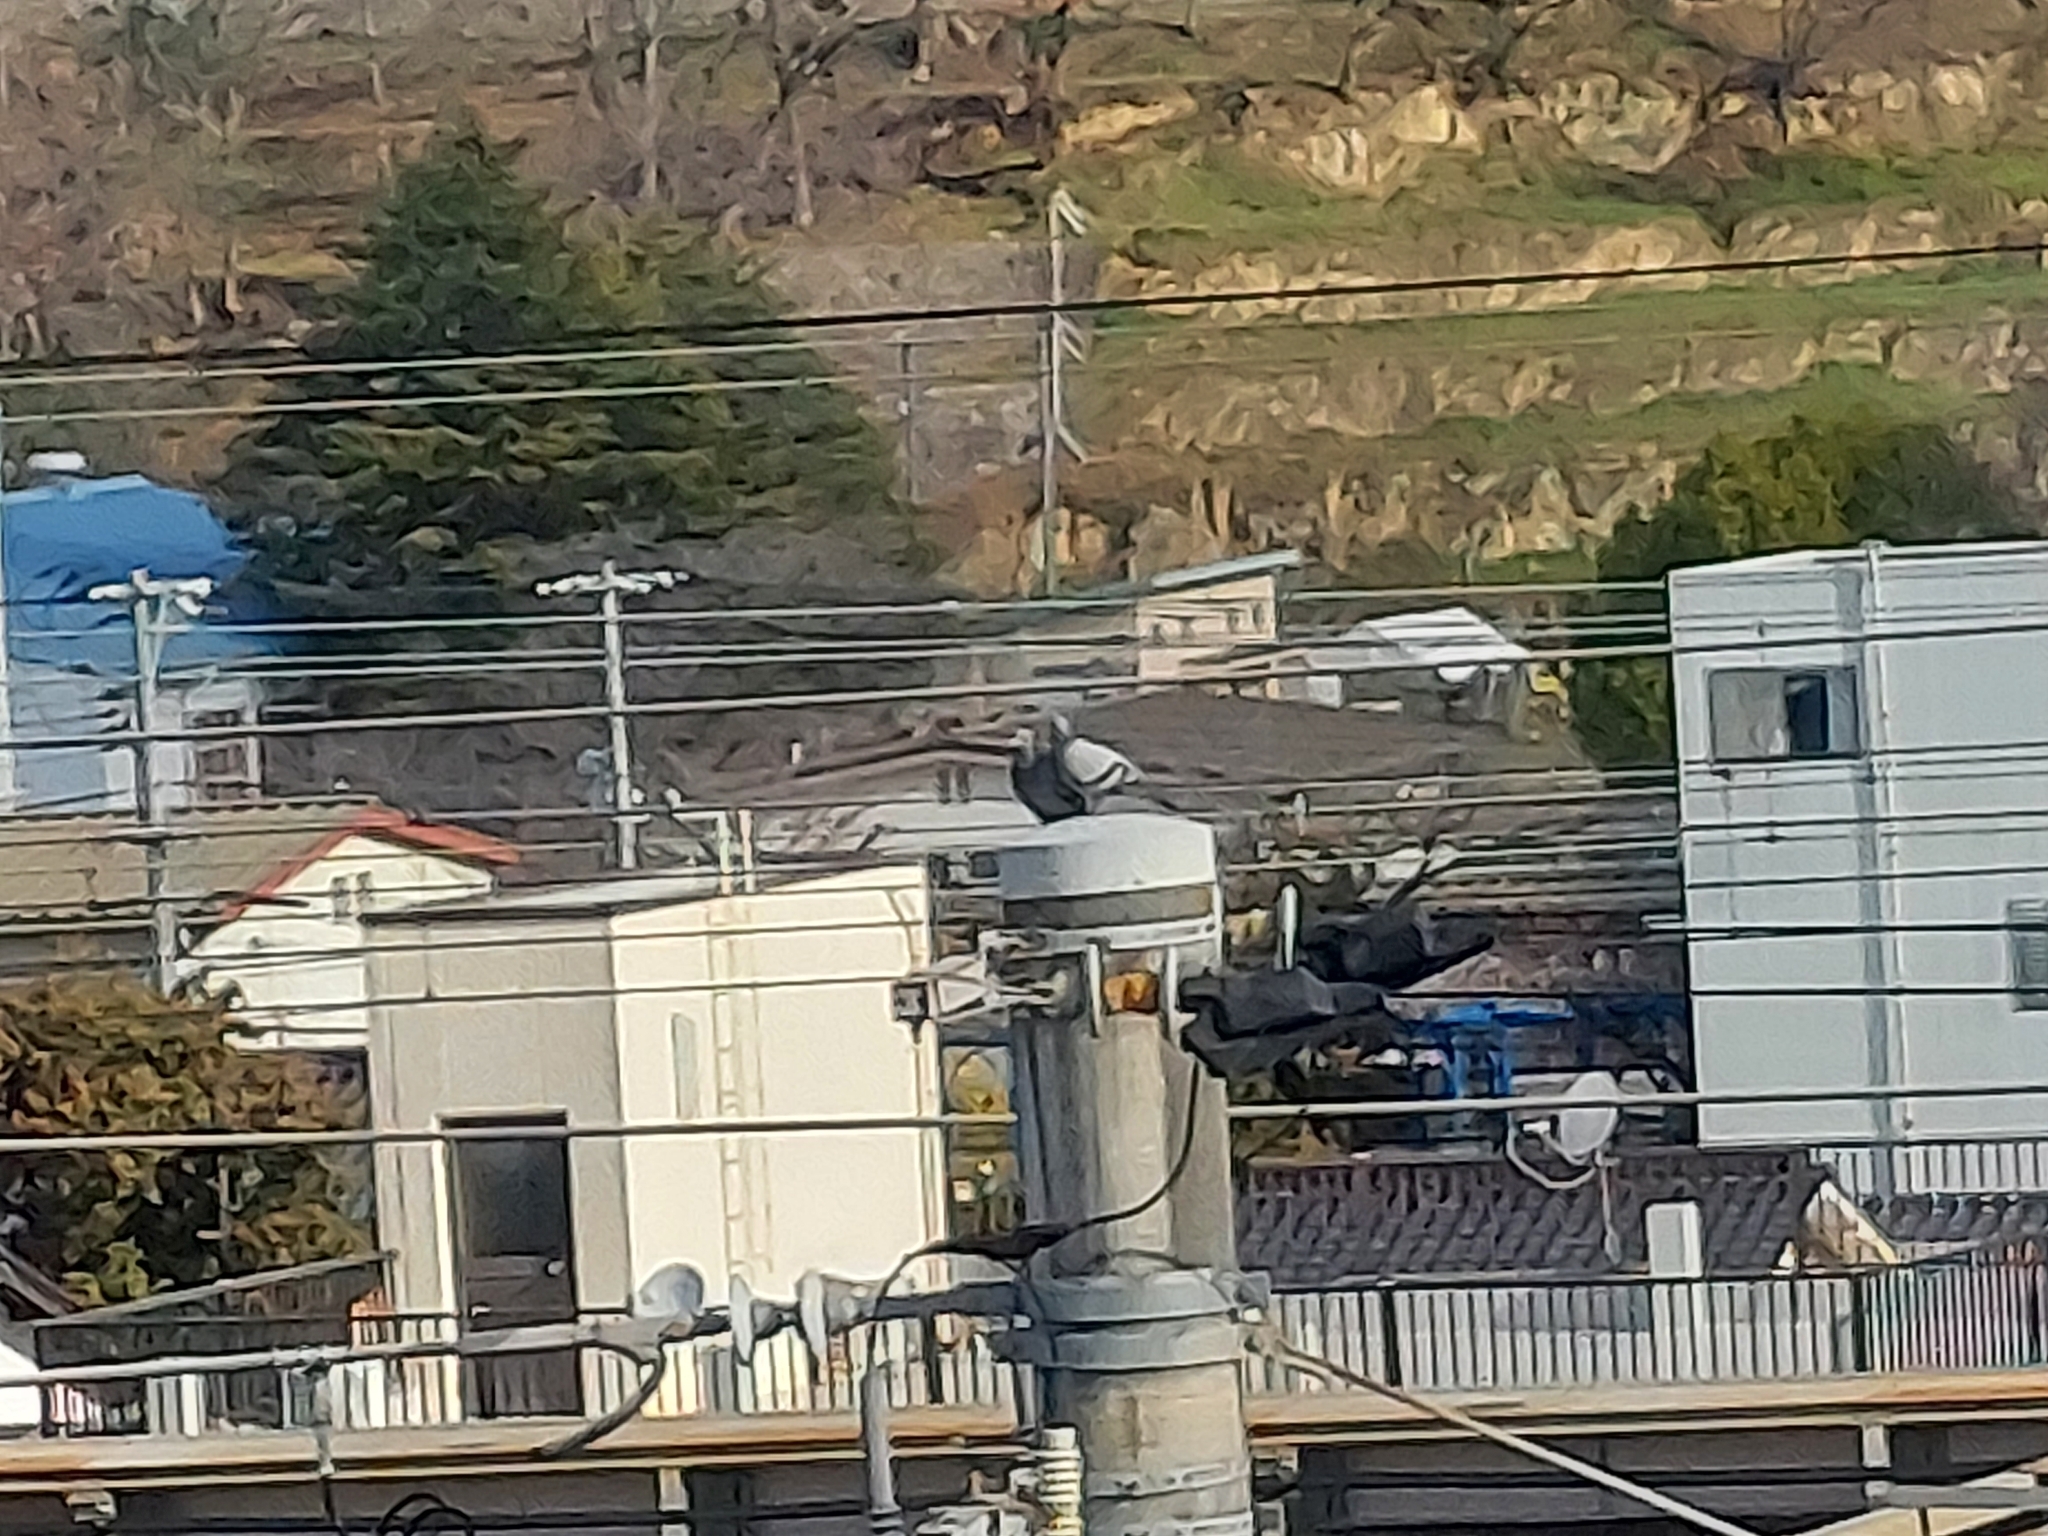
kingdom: Animalia
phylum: Chordata
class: Aves
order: Columbiformes
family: Columbidae
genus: Columba
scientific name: Columba livia
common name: Rock pigeon
